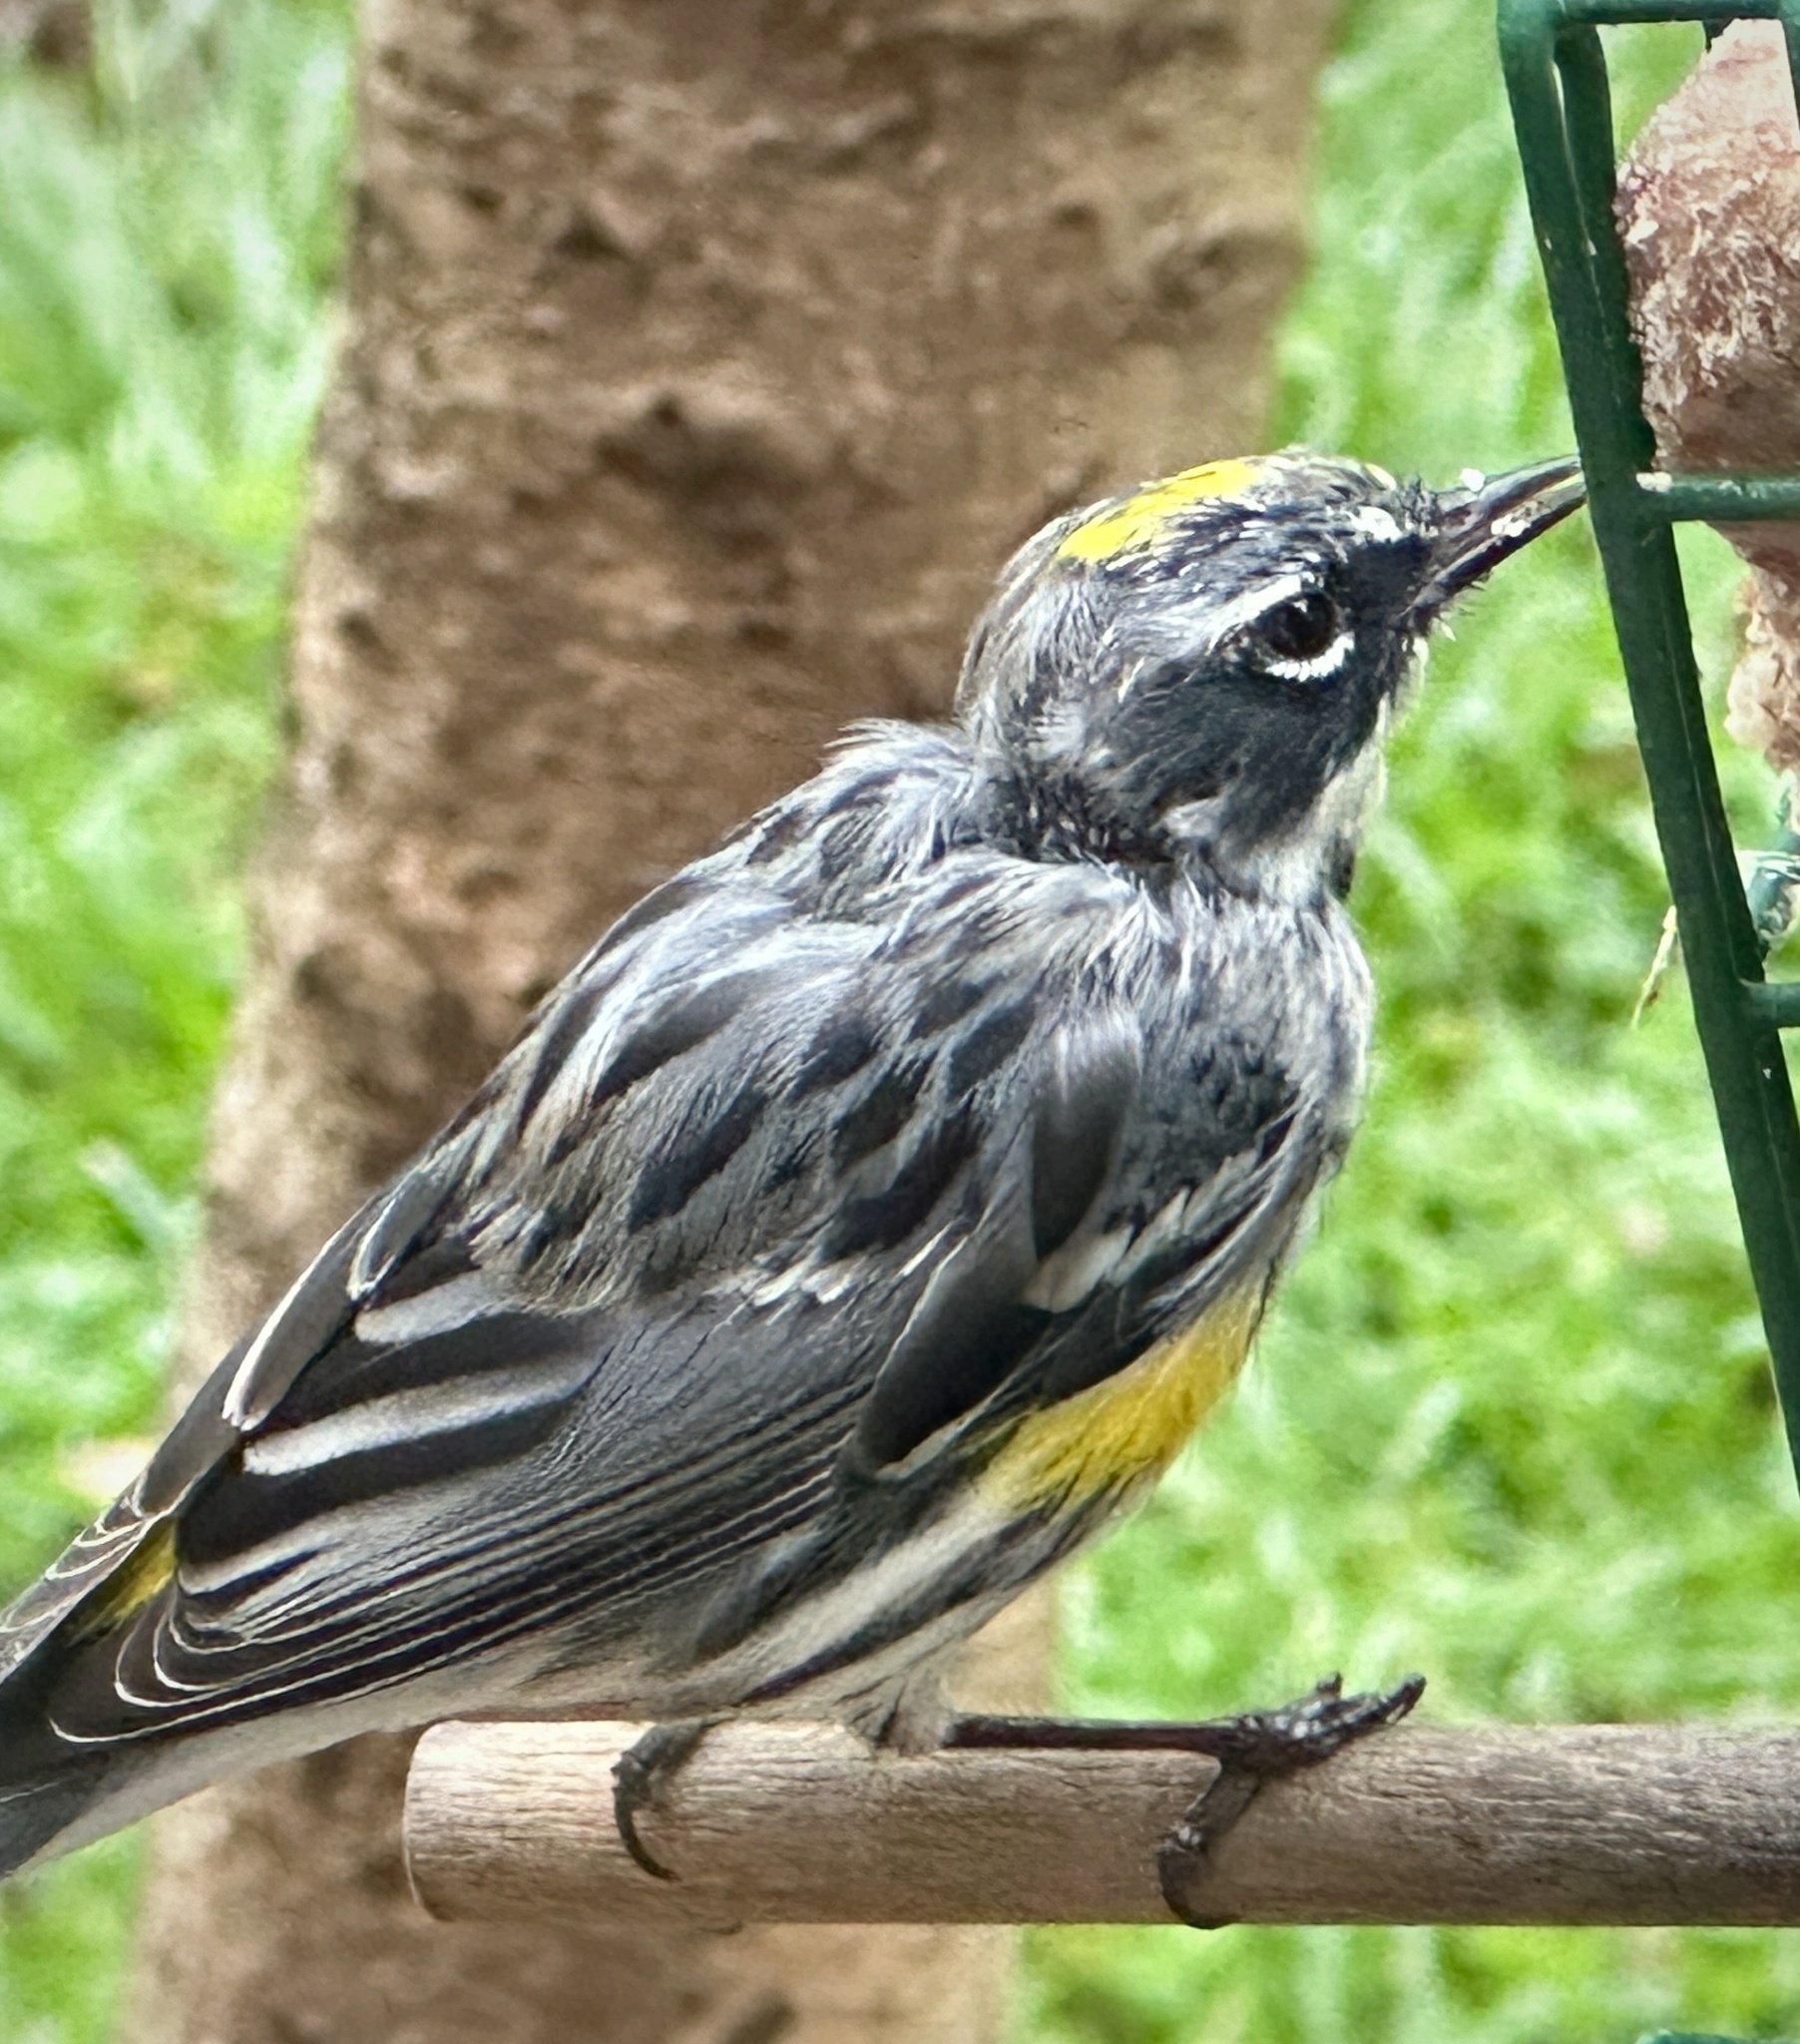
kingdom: Animalia
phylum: Chordata
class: Aves
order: Passeriformes
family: Parulidae
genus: Setophaga
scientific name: Setophaga coronata
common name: Myrtle warbler
